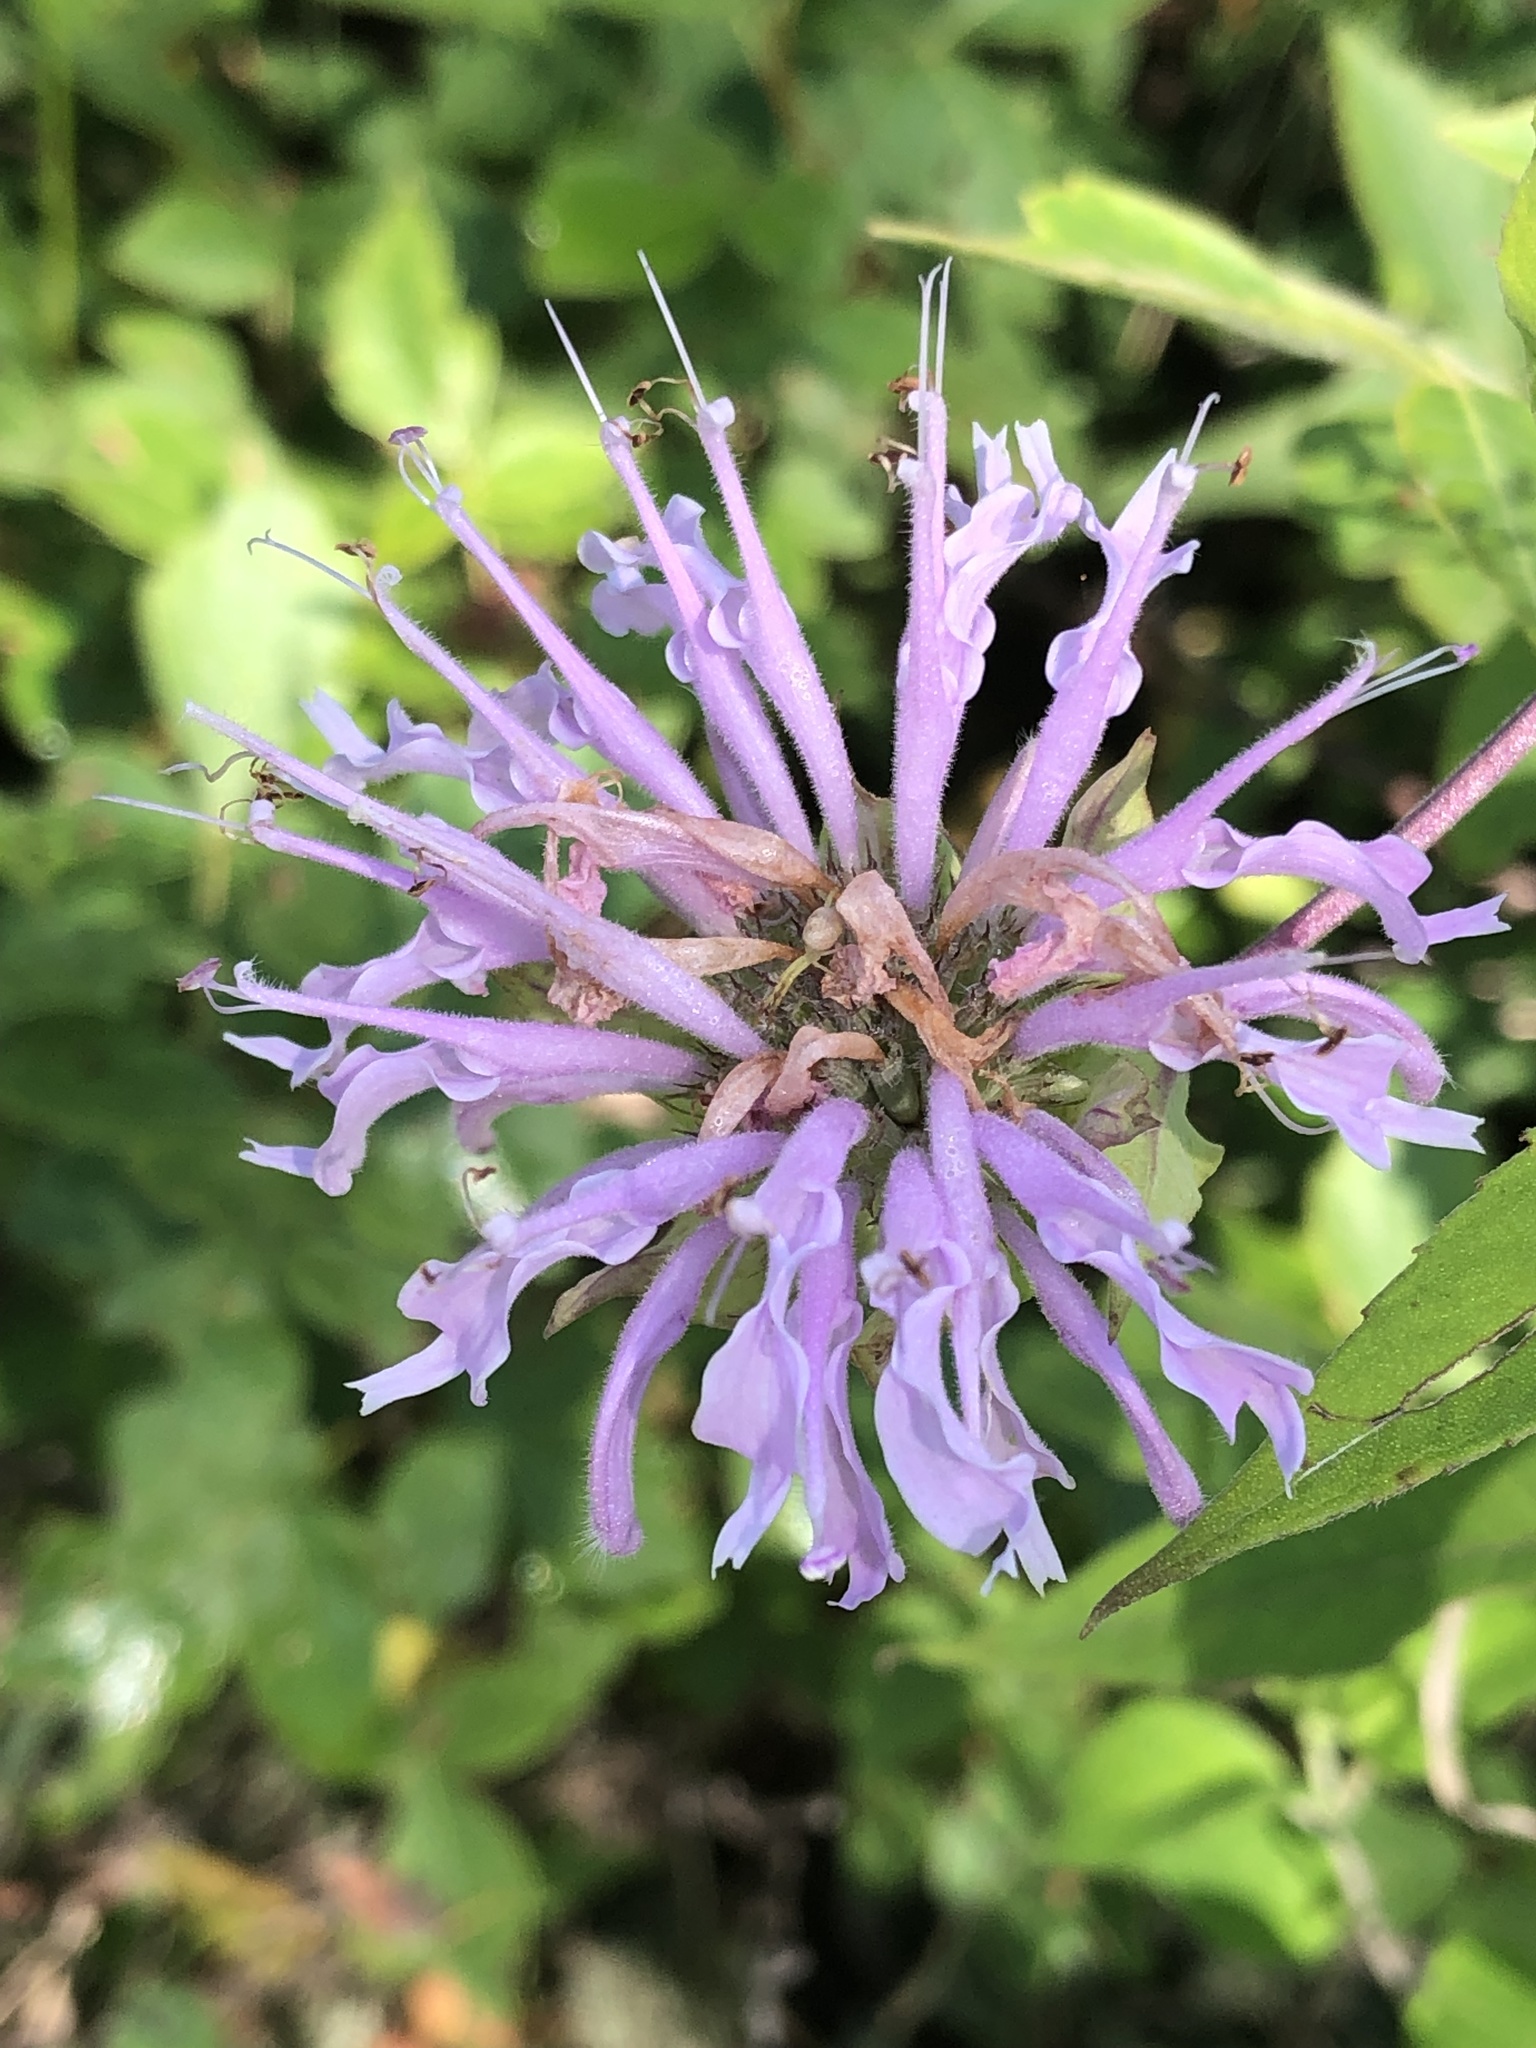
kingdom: Plantae
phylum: Tracheophyta
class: Magnoliopsida
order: Lamiales
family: Lamiaceae
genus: Monarda
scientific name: Monarda fistulosa
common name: Purple beebalm
